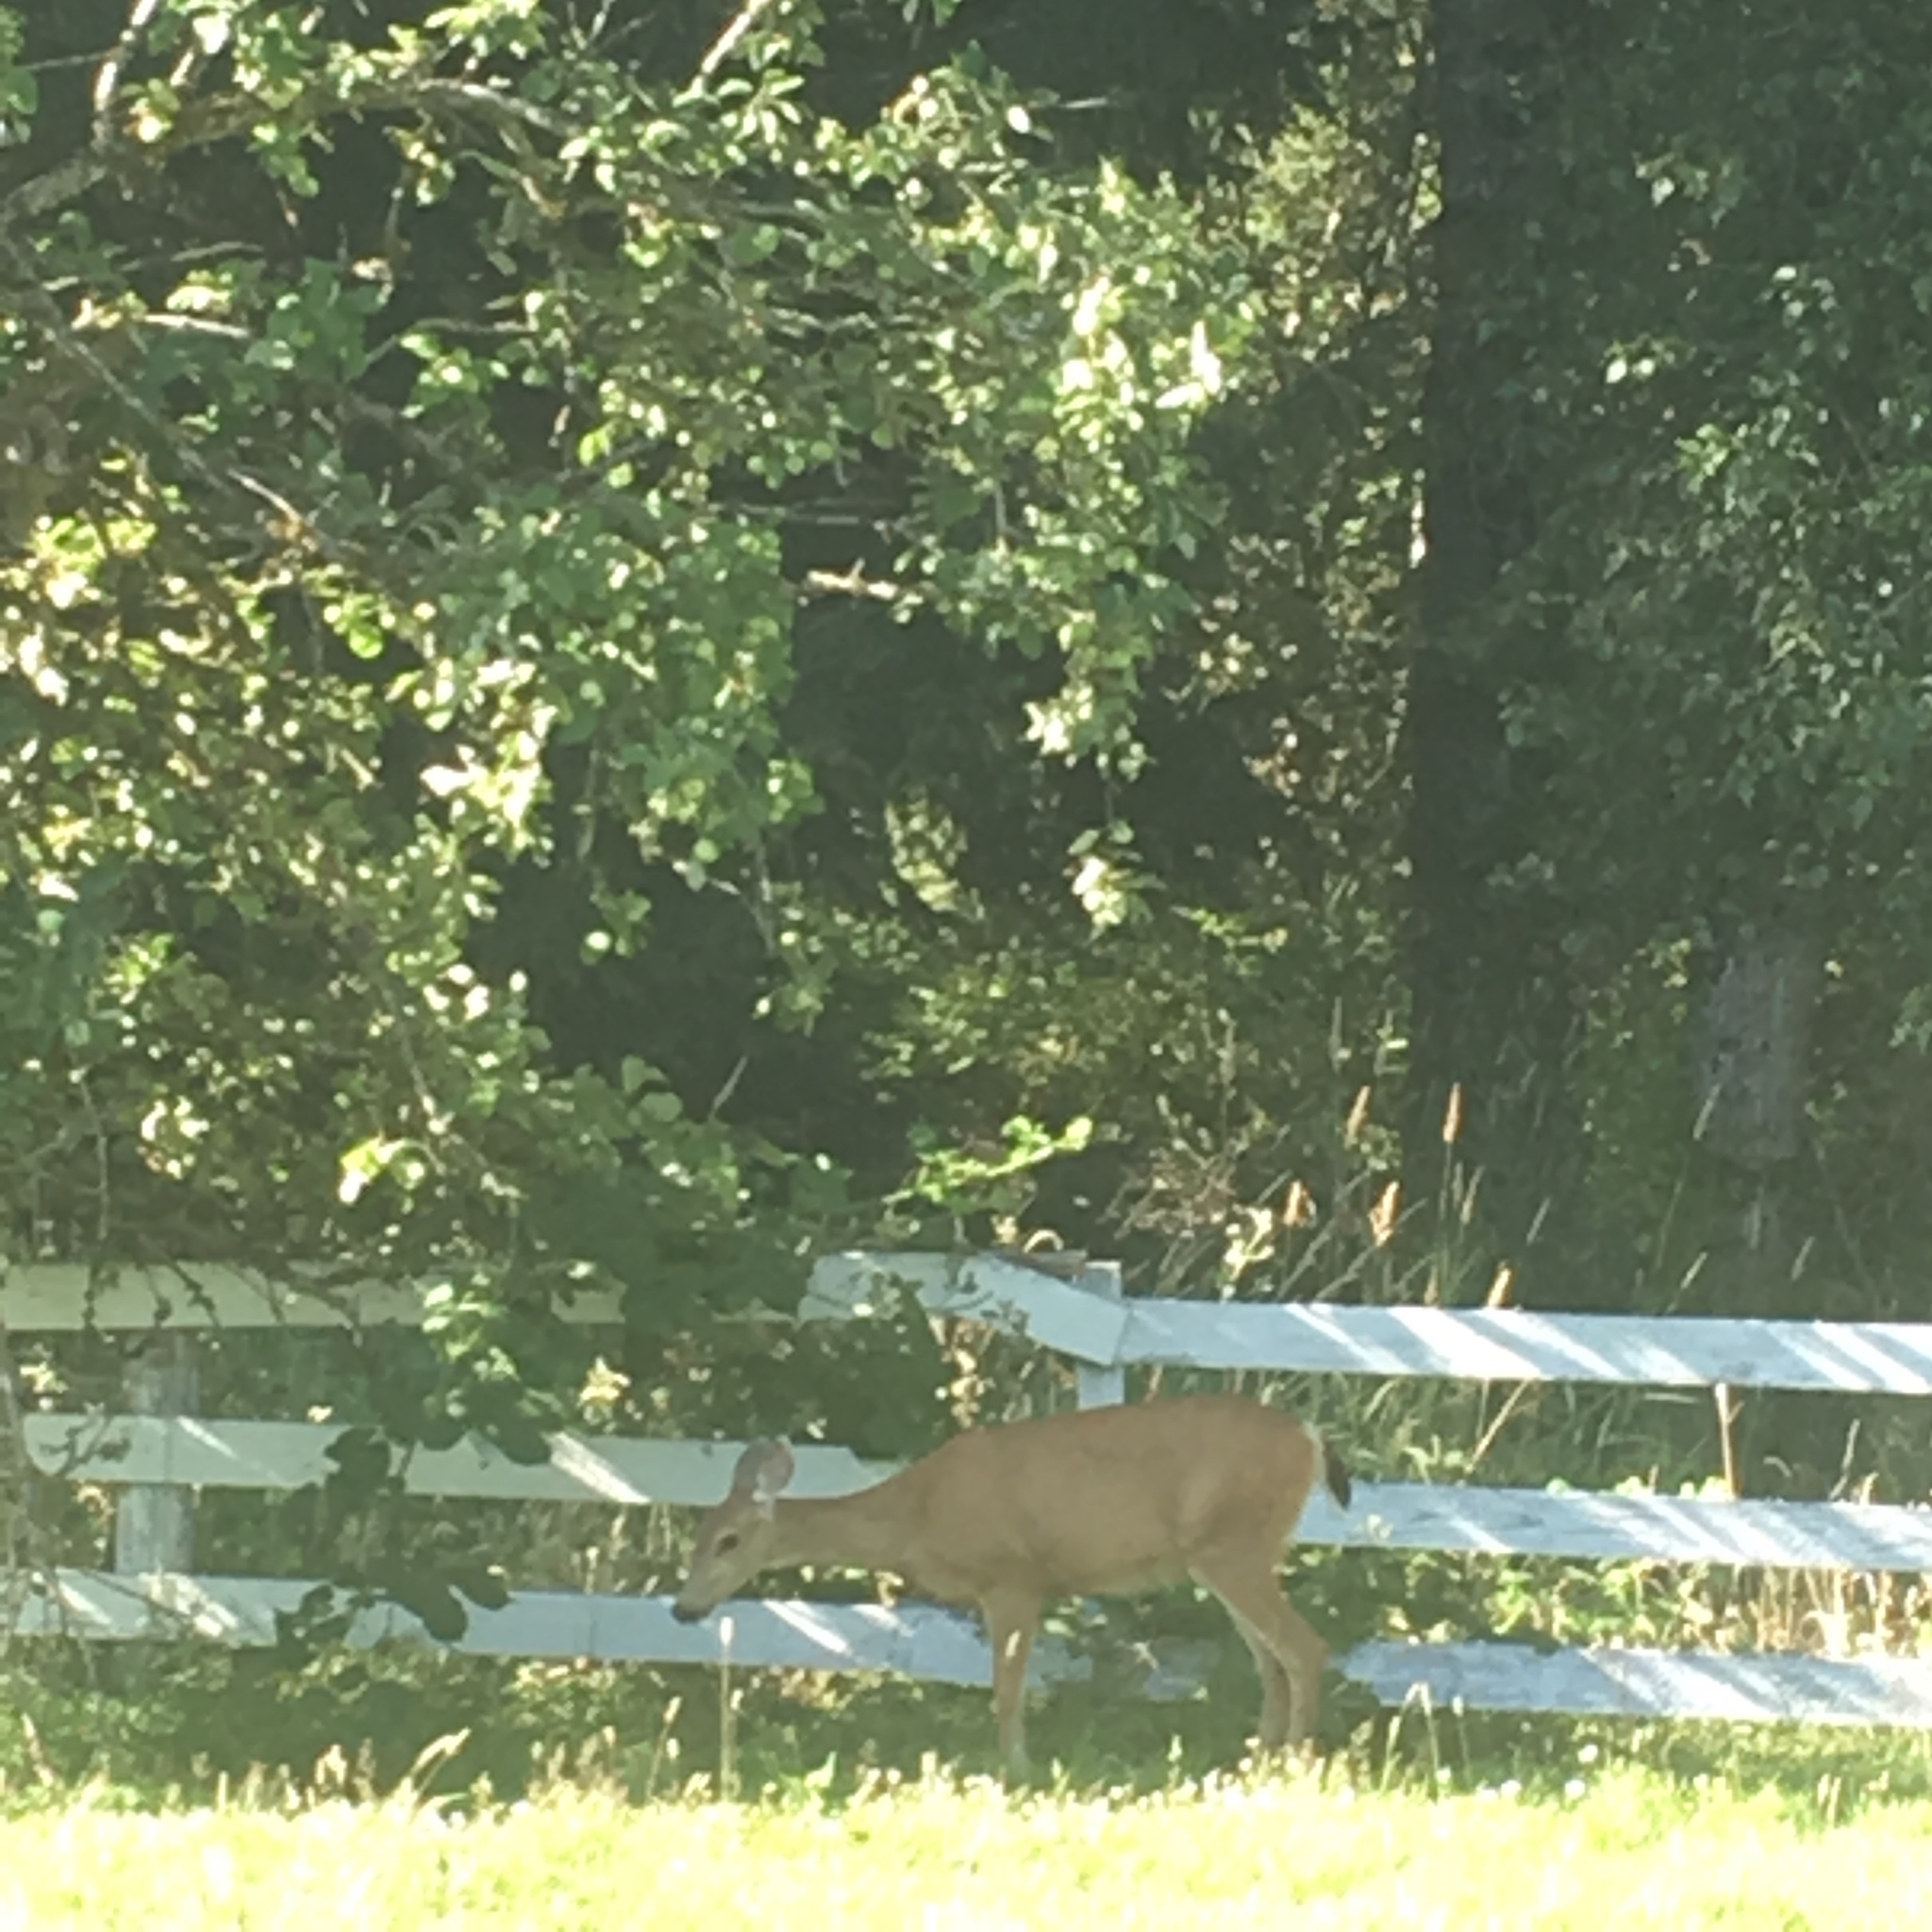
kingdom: Animalia
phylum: Chordata
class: Mammalia
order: Artiodactyla
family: Cervidae
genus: Odocoileus
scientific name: Odocoileus hemionus
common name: Mule deer
